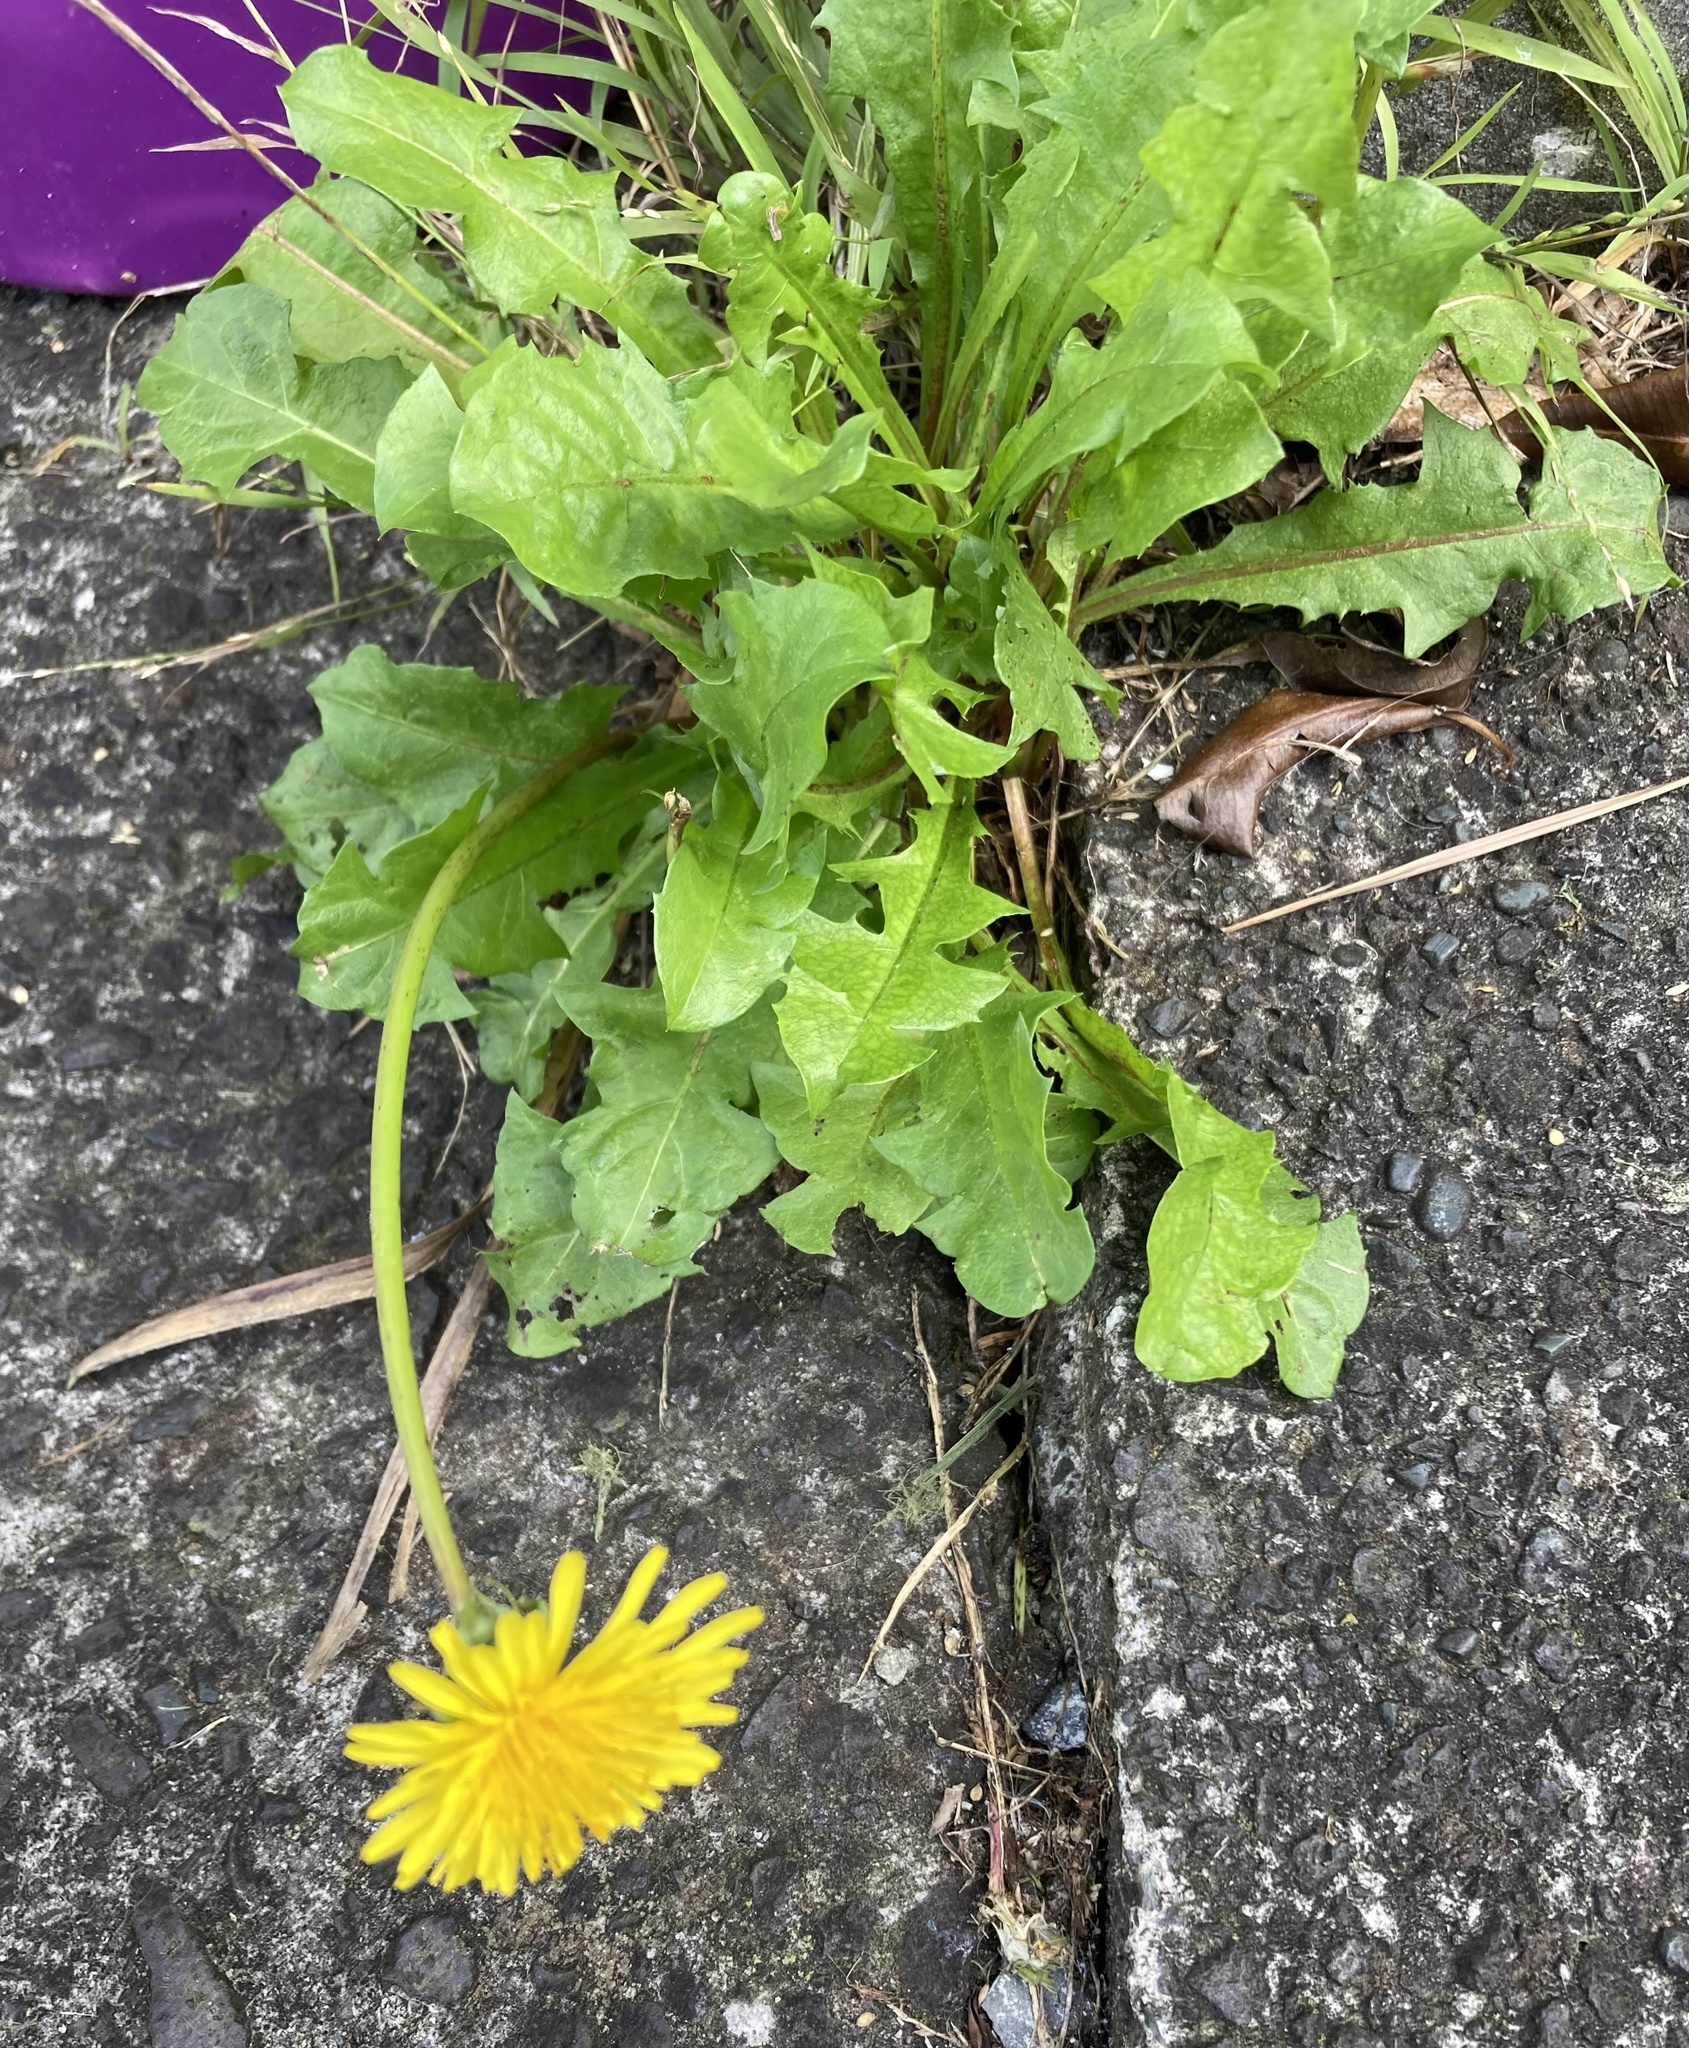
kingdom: Plantae
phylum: Tracheophyta
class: Magnoliopsida
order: Asterales
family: Asteraceae
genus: Taraxacum
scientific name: Taraxacum officinale
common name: Common dandelion
